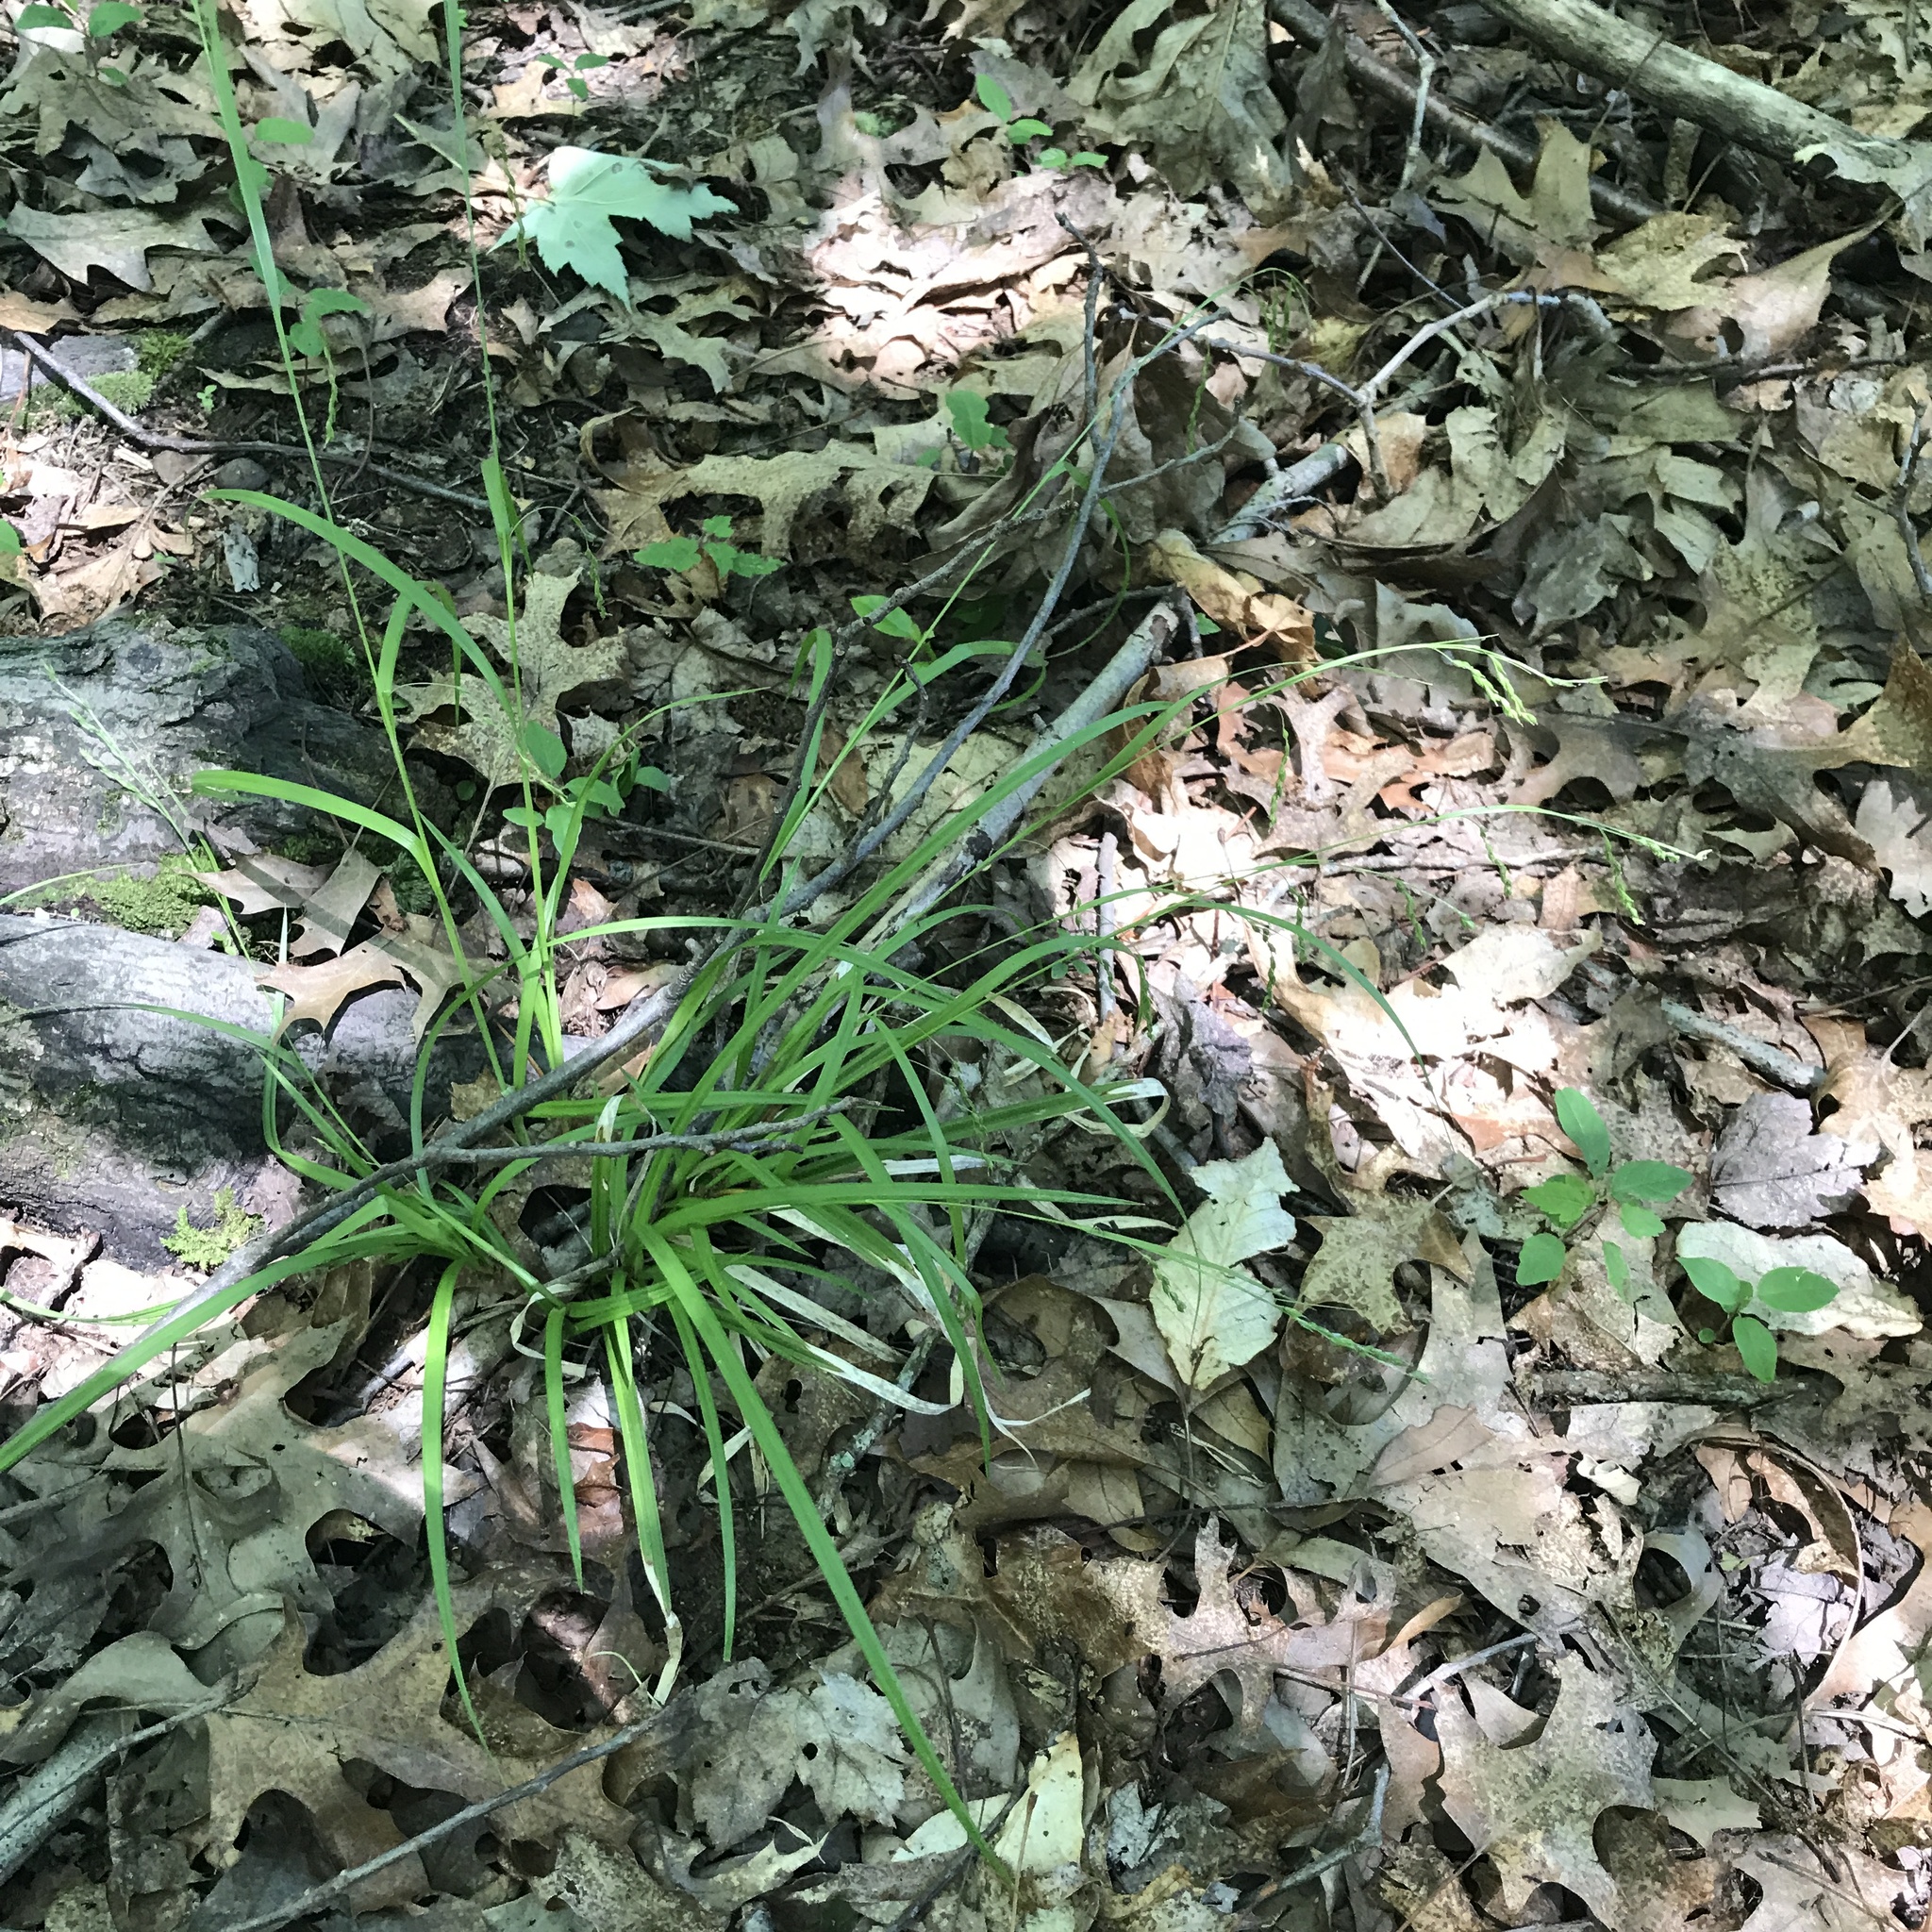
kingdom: Plantae
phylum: Tracheophyta
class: Liliopsida
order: Poales
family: Cyperaceae
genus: Carex
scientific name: Carex debilis
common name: White-edge sedge
